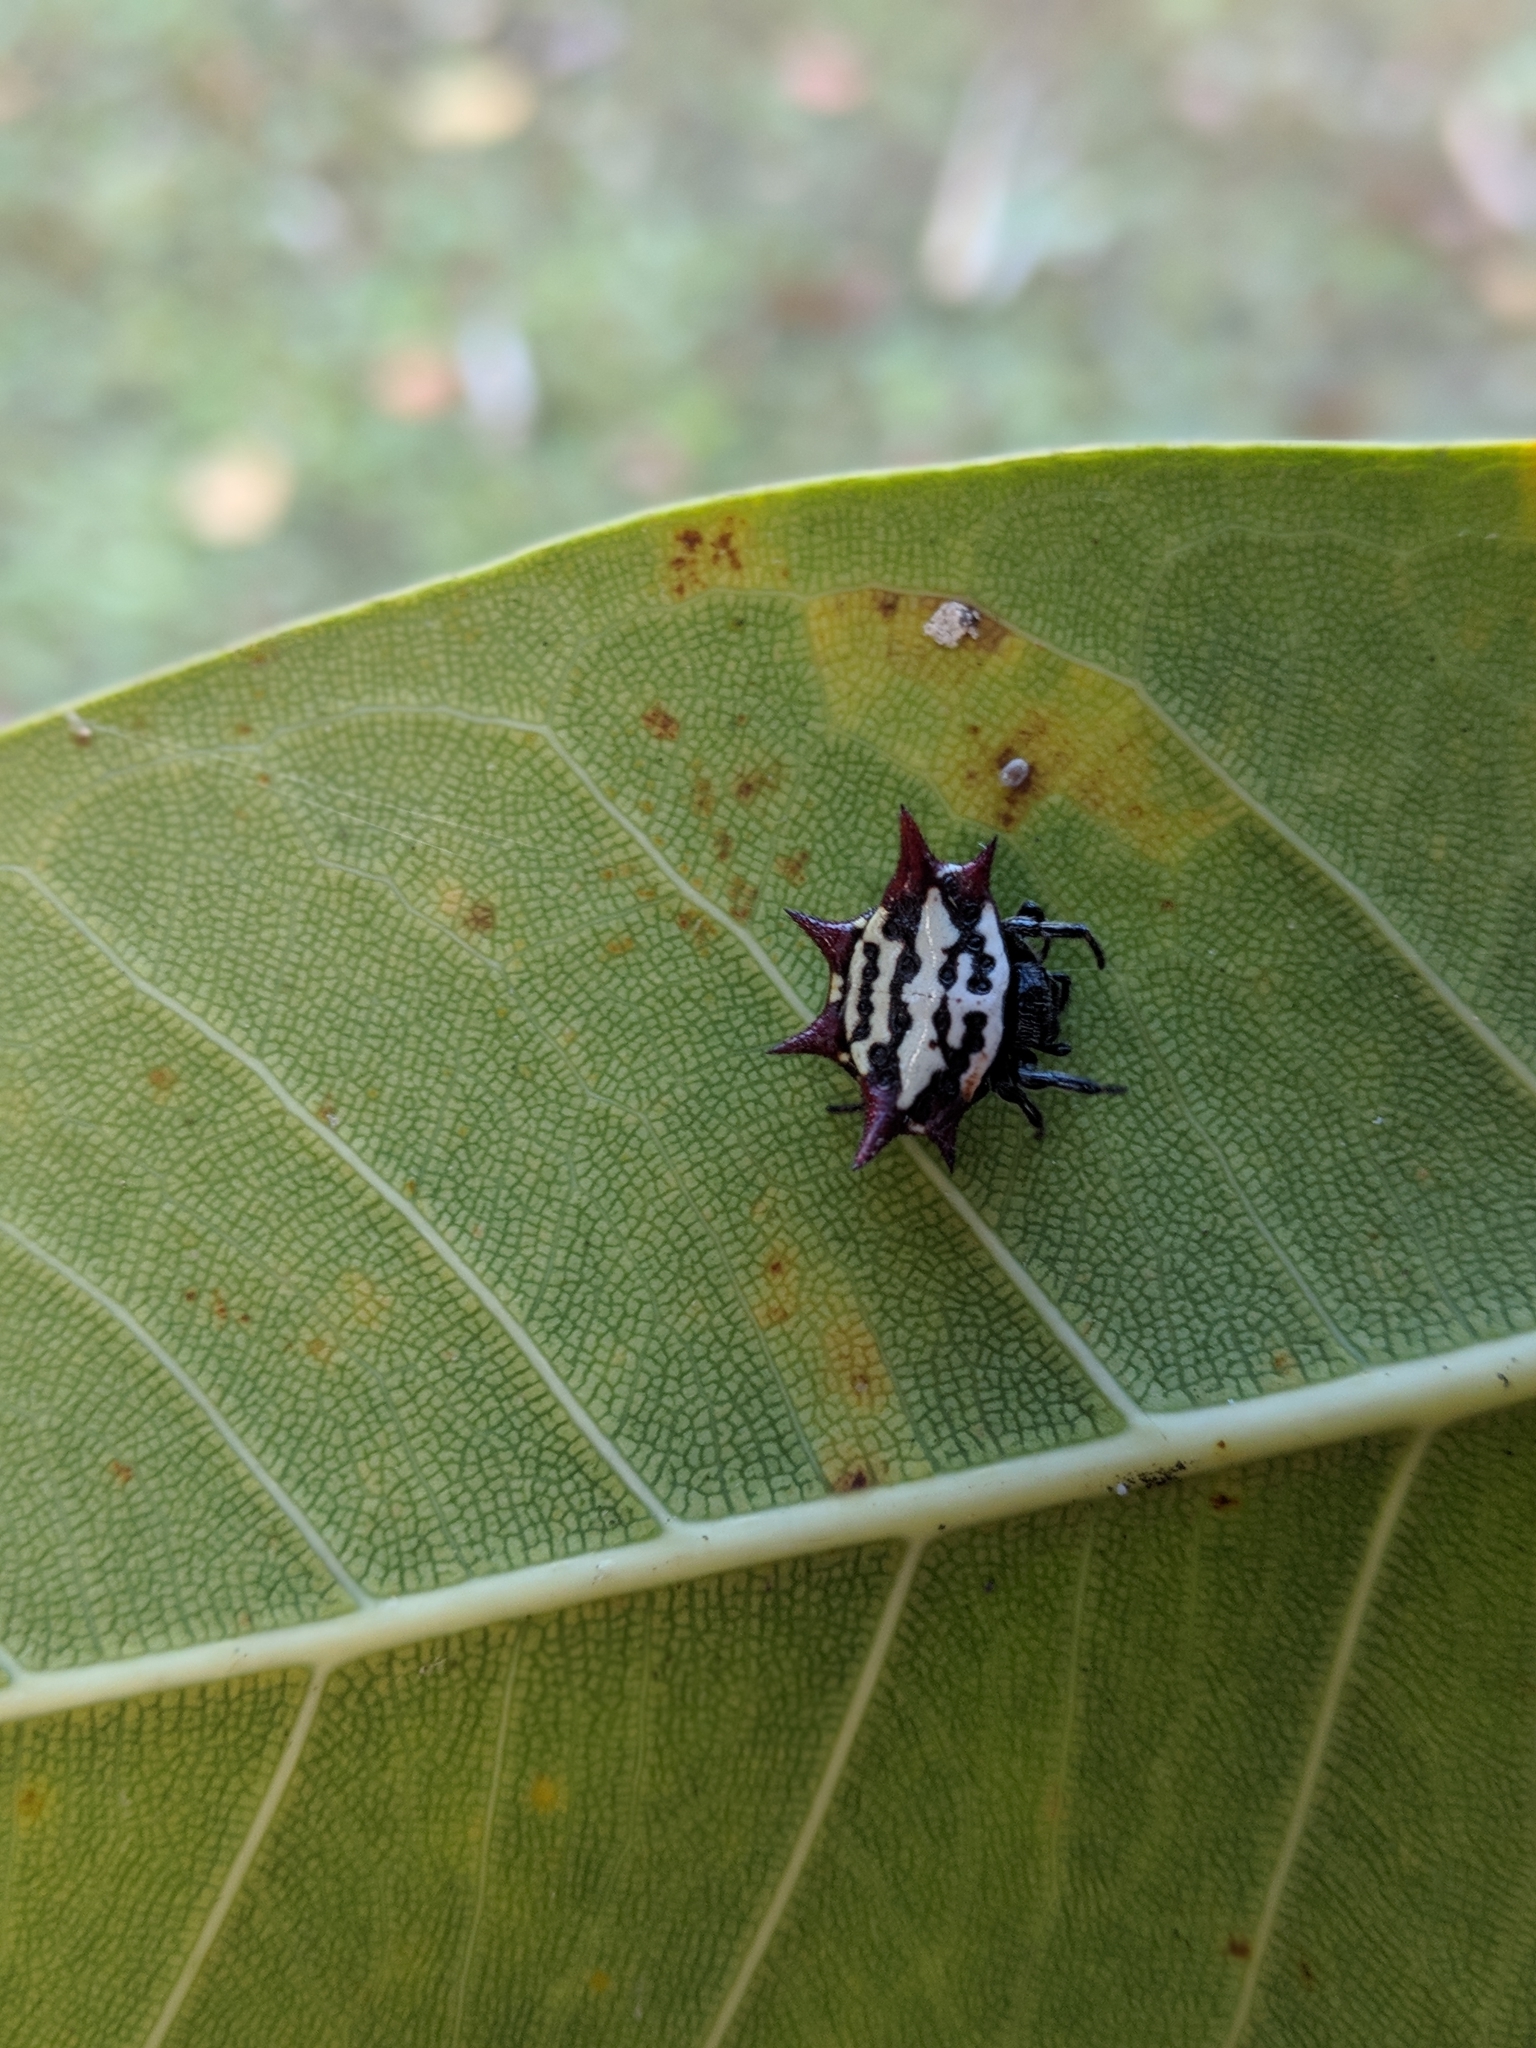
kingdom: Animalia
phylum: Arthropoda
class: Arachnida
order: Araneae
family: Araneidae
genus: Gasteracantha
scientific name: Gasteracantha cancriformis
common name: Orb weavers
